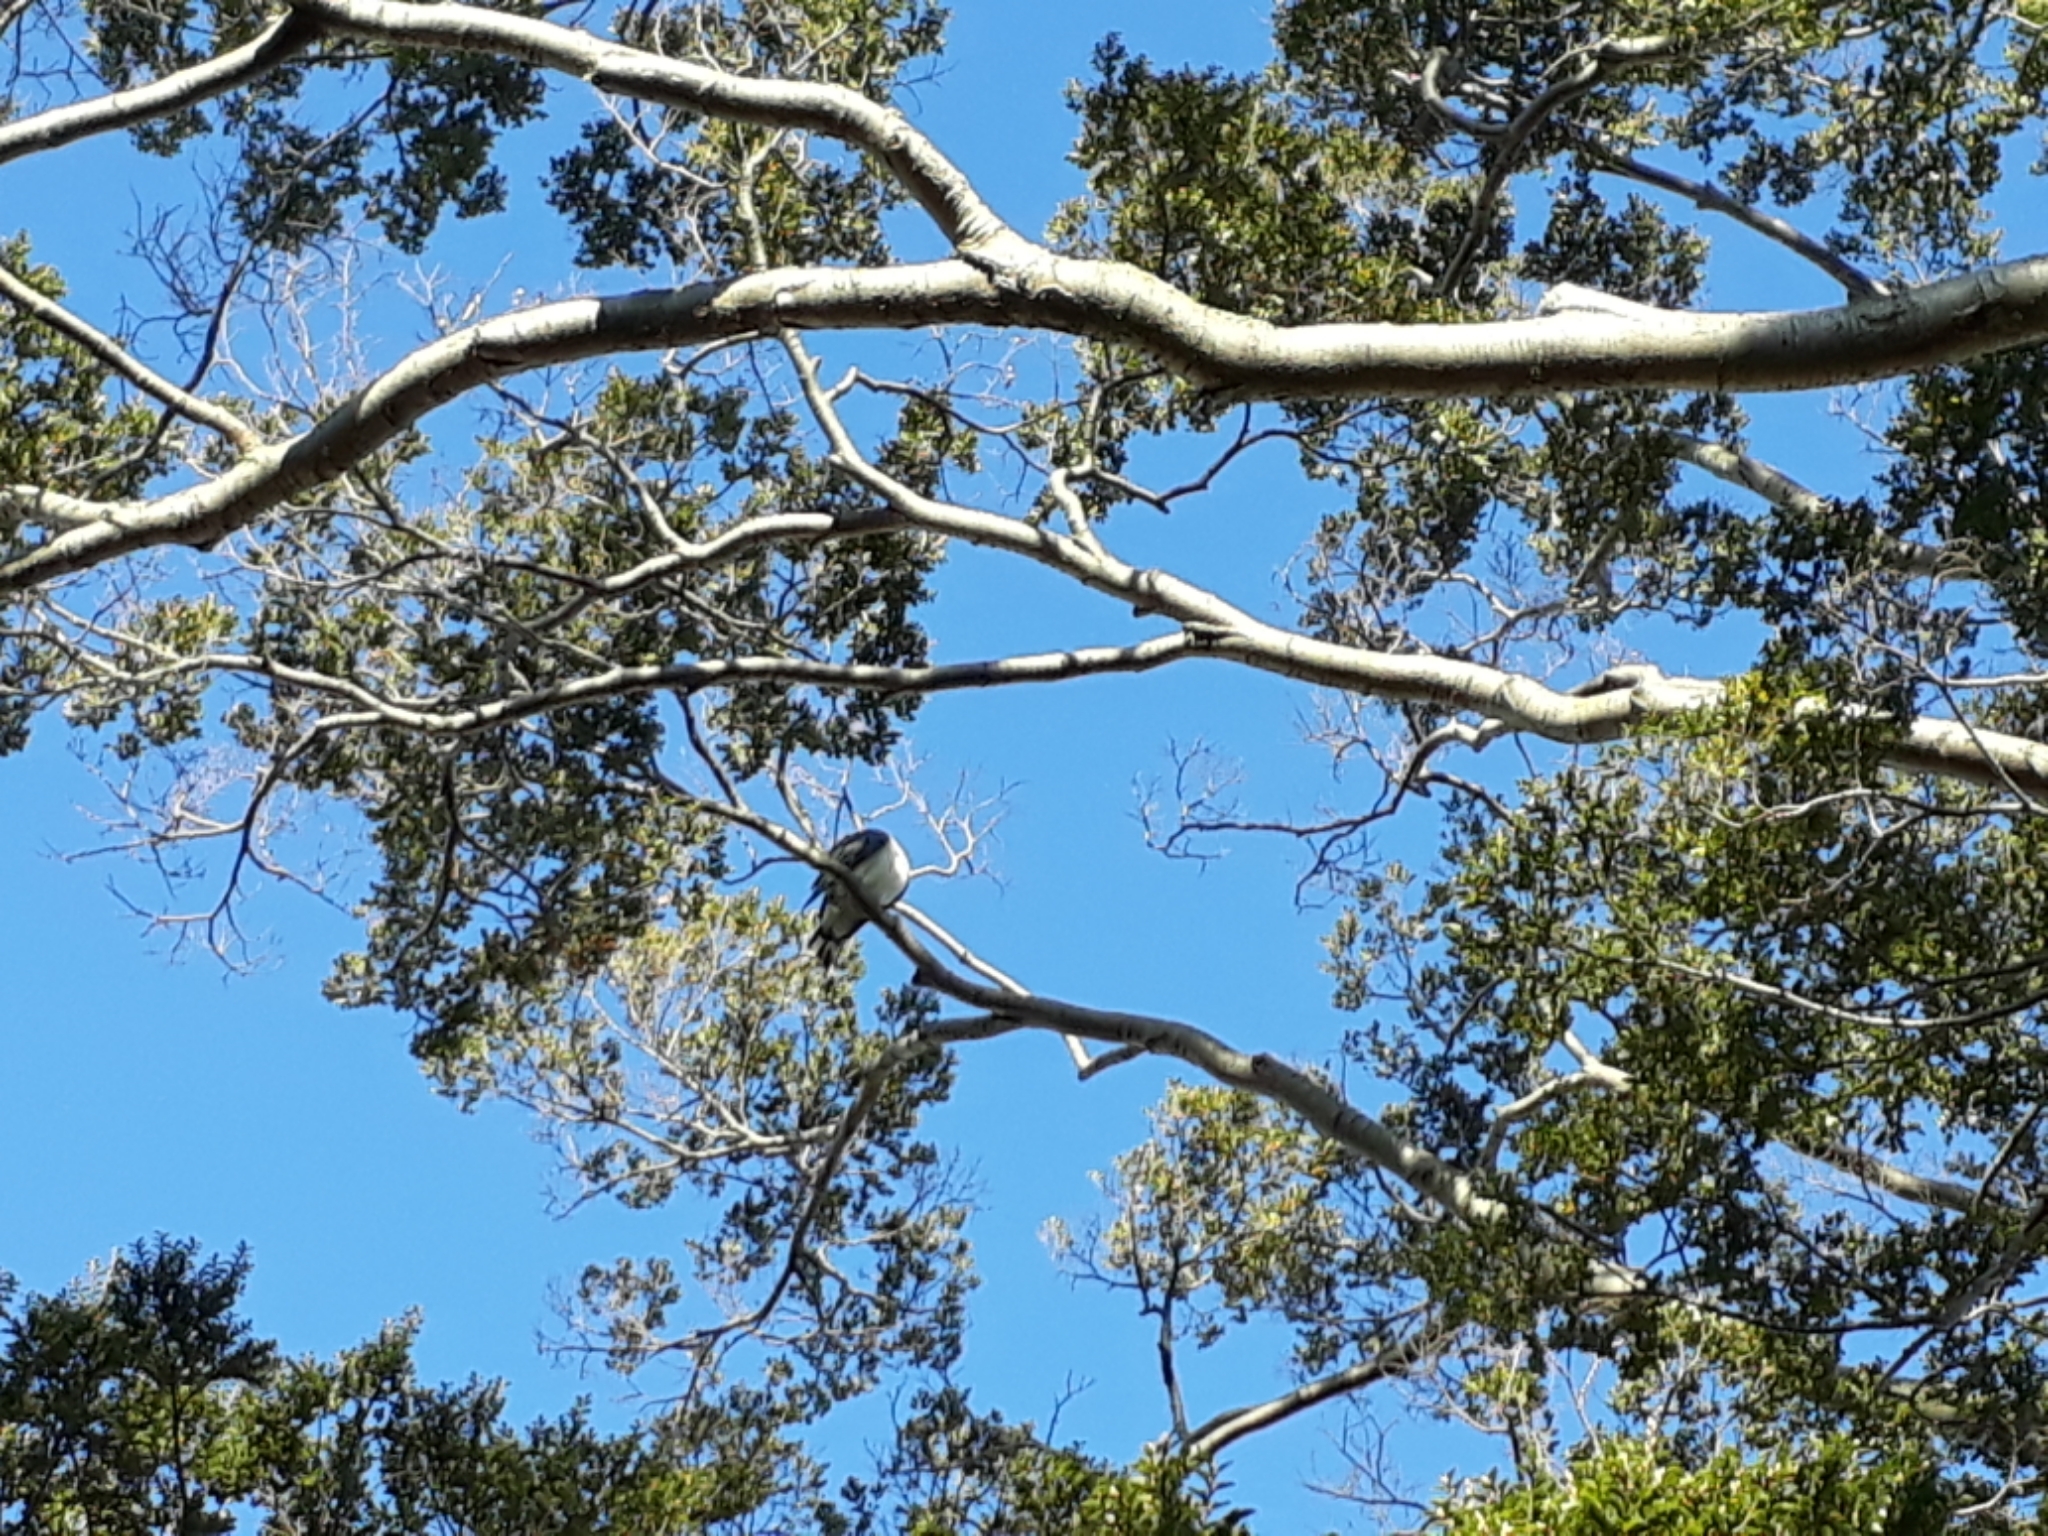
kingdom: Animalia
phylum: Chordata
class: Aves
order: Columbiformes
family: Columbidae
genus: Hemiphaga
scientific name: Hemiphaga novaeseelandiae
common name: New zealand pigeon
